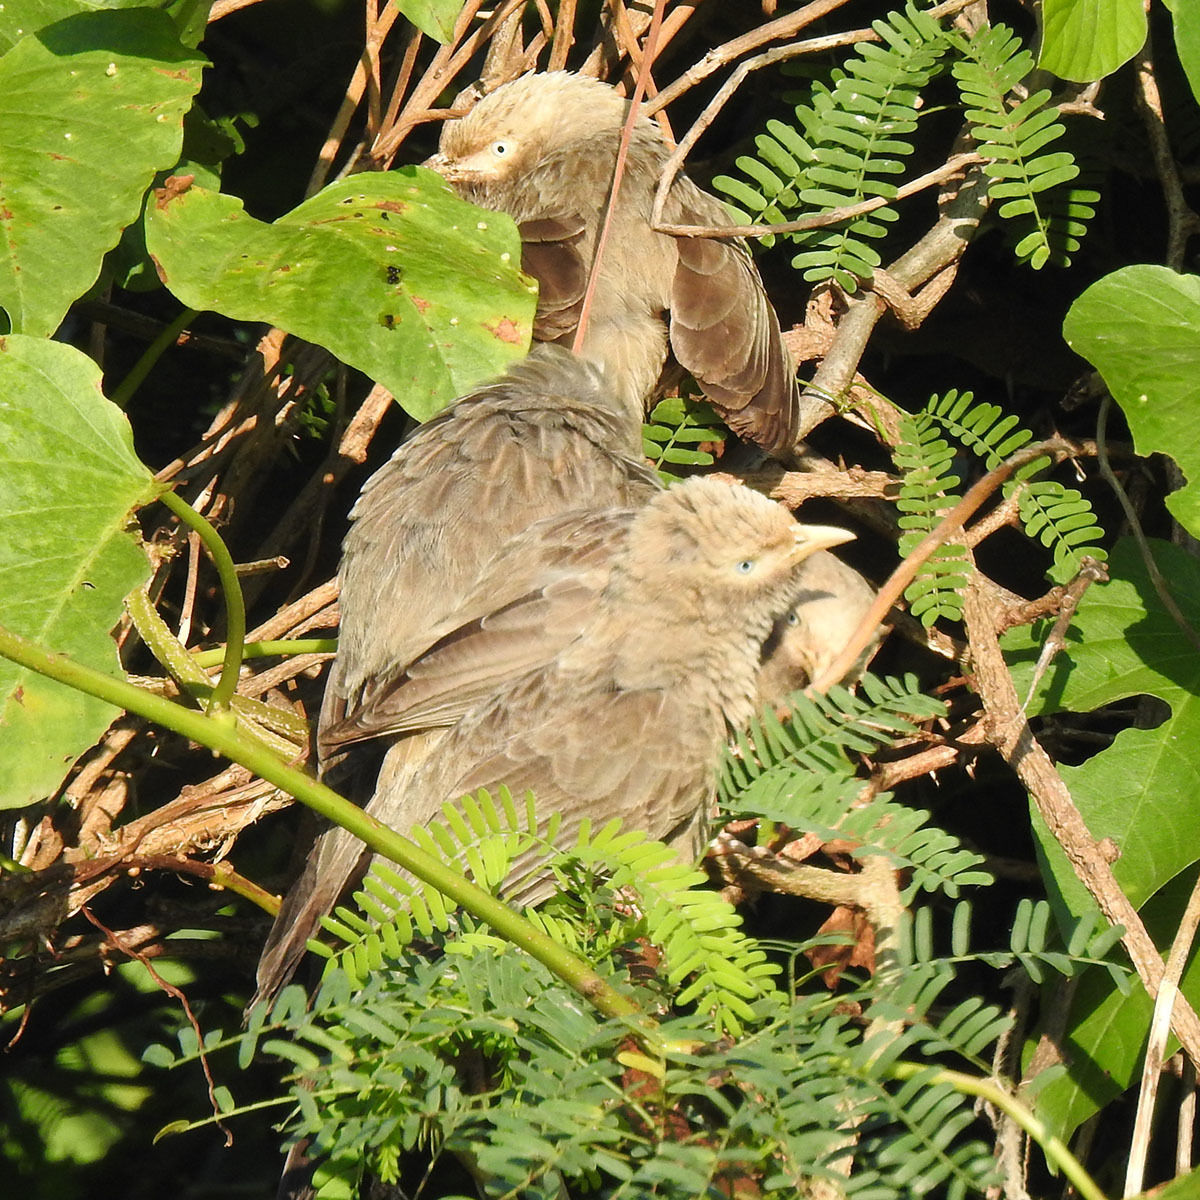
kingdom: Animalia
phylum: Chordata
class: Aves
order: Passeriformes
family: Leiothrichidae
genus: Turdoides
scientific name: Turdoides affinis
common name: Yellow-billed babbler
